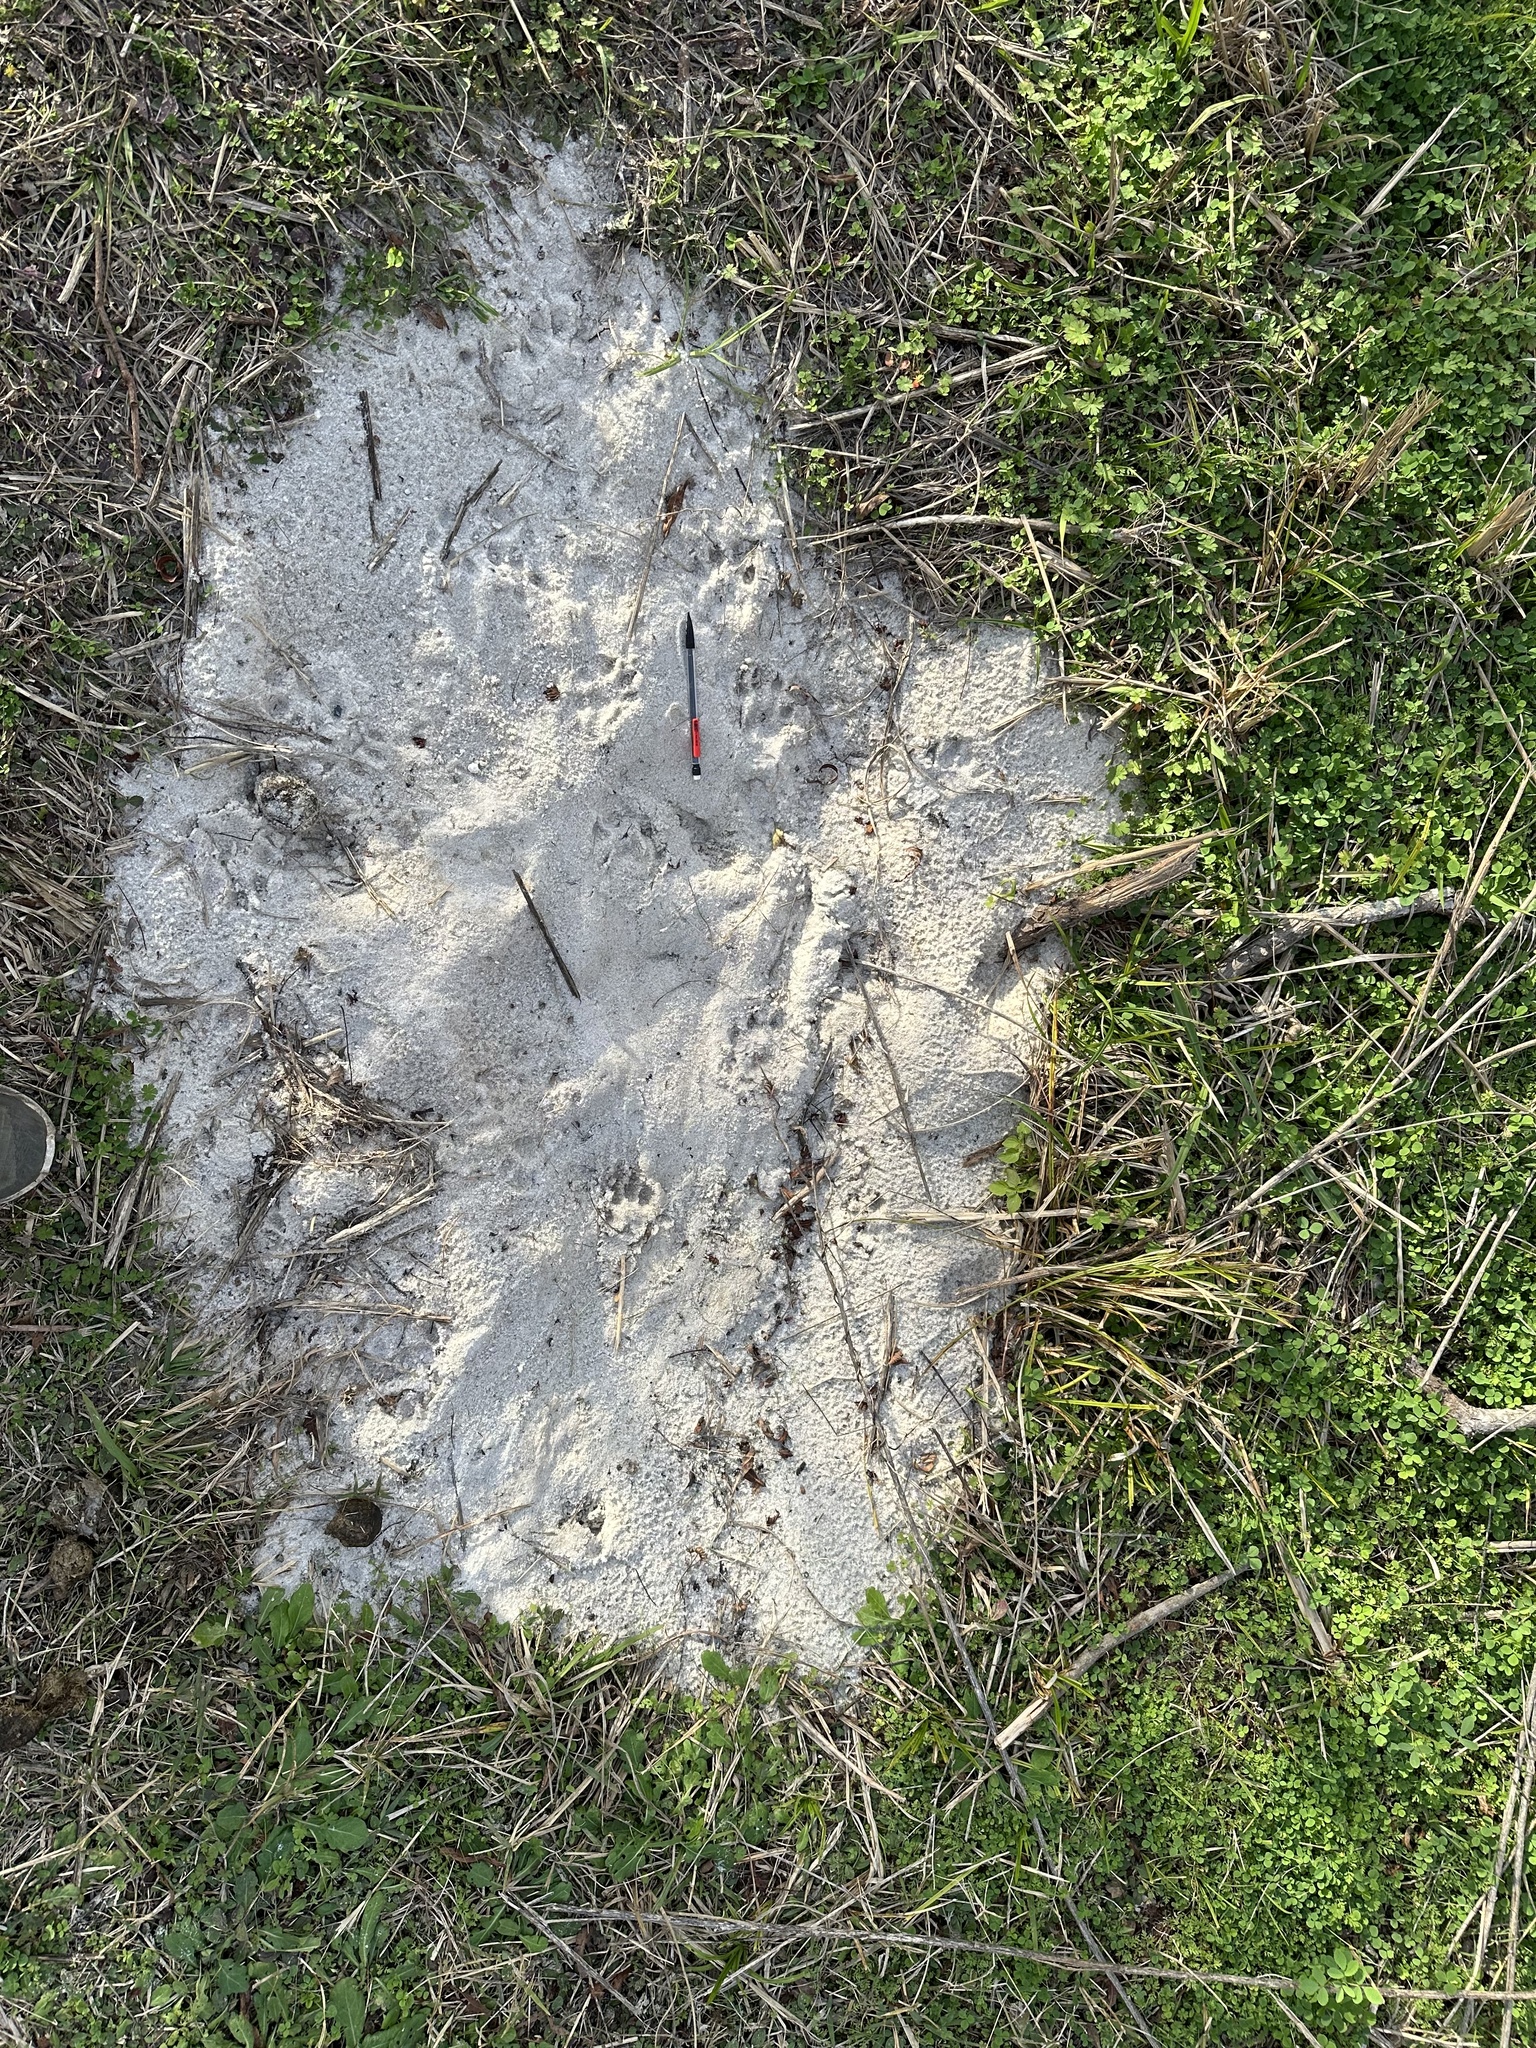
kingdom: Animalia
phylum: Chordata
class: Mammalia
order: Carnivora
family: Mustelidae
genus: Lontra
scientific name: Lontra canadensis
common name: North american river otter
